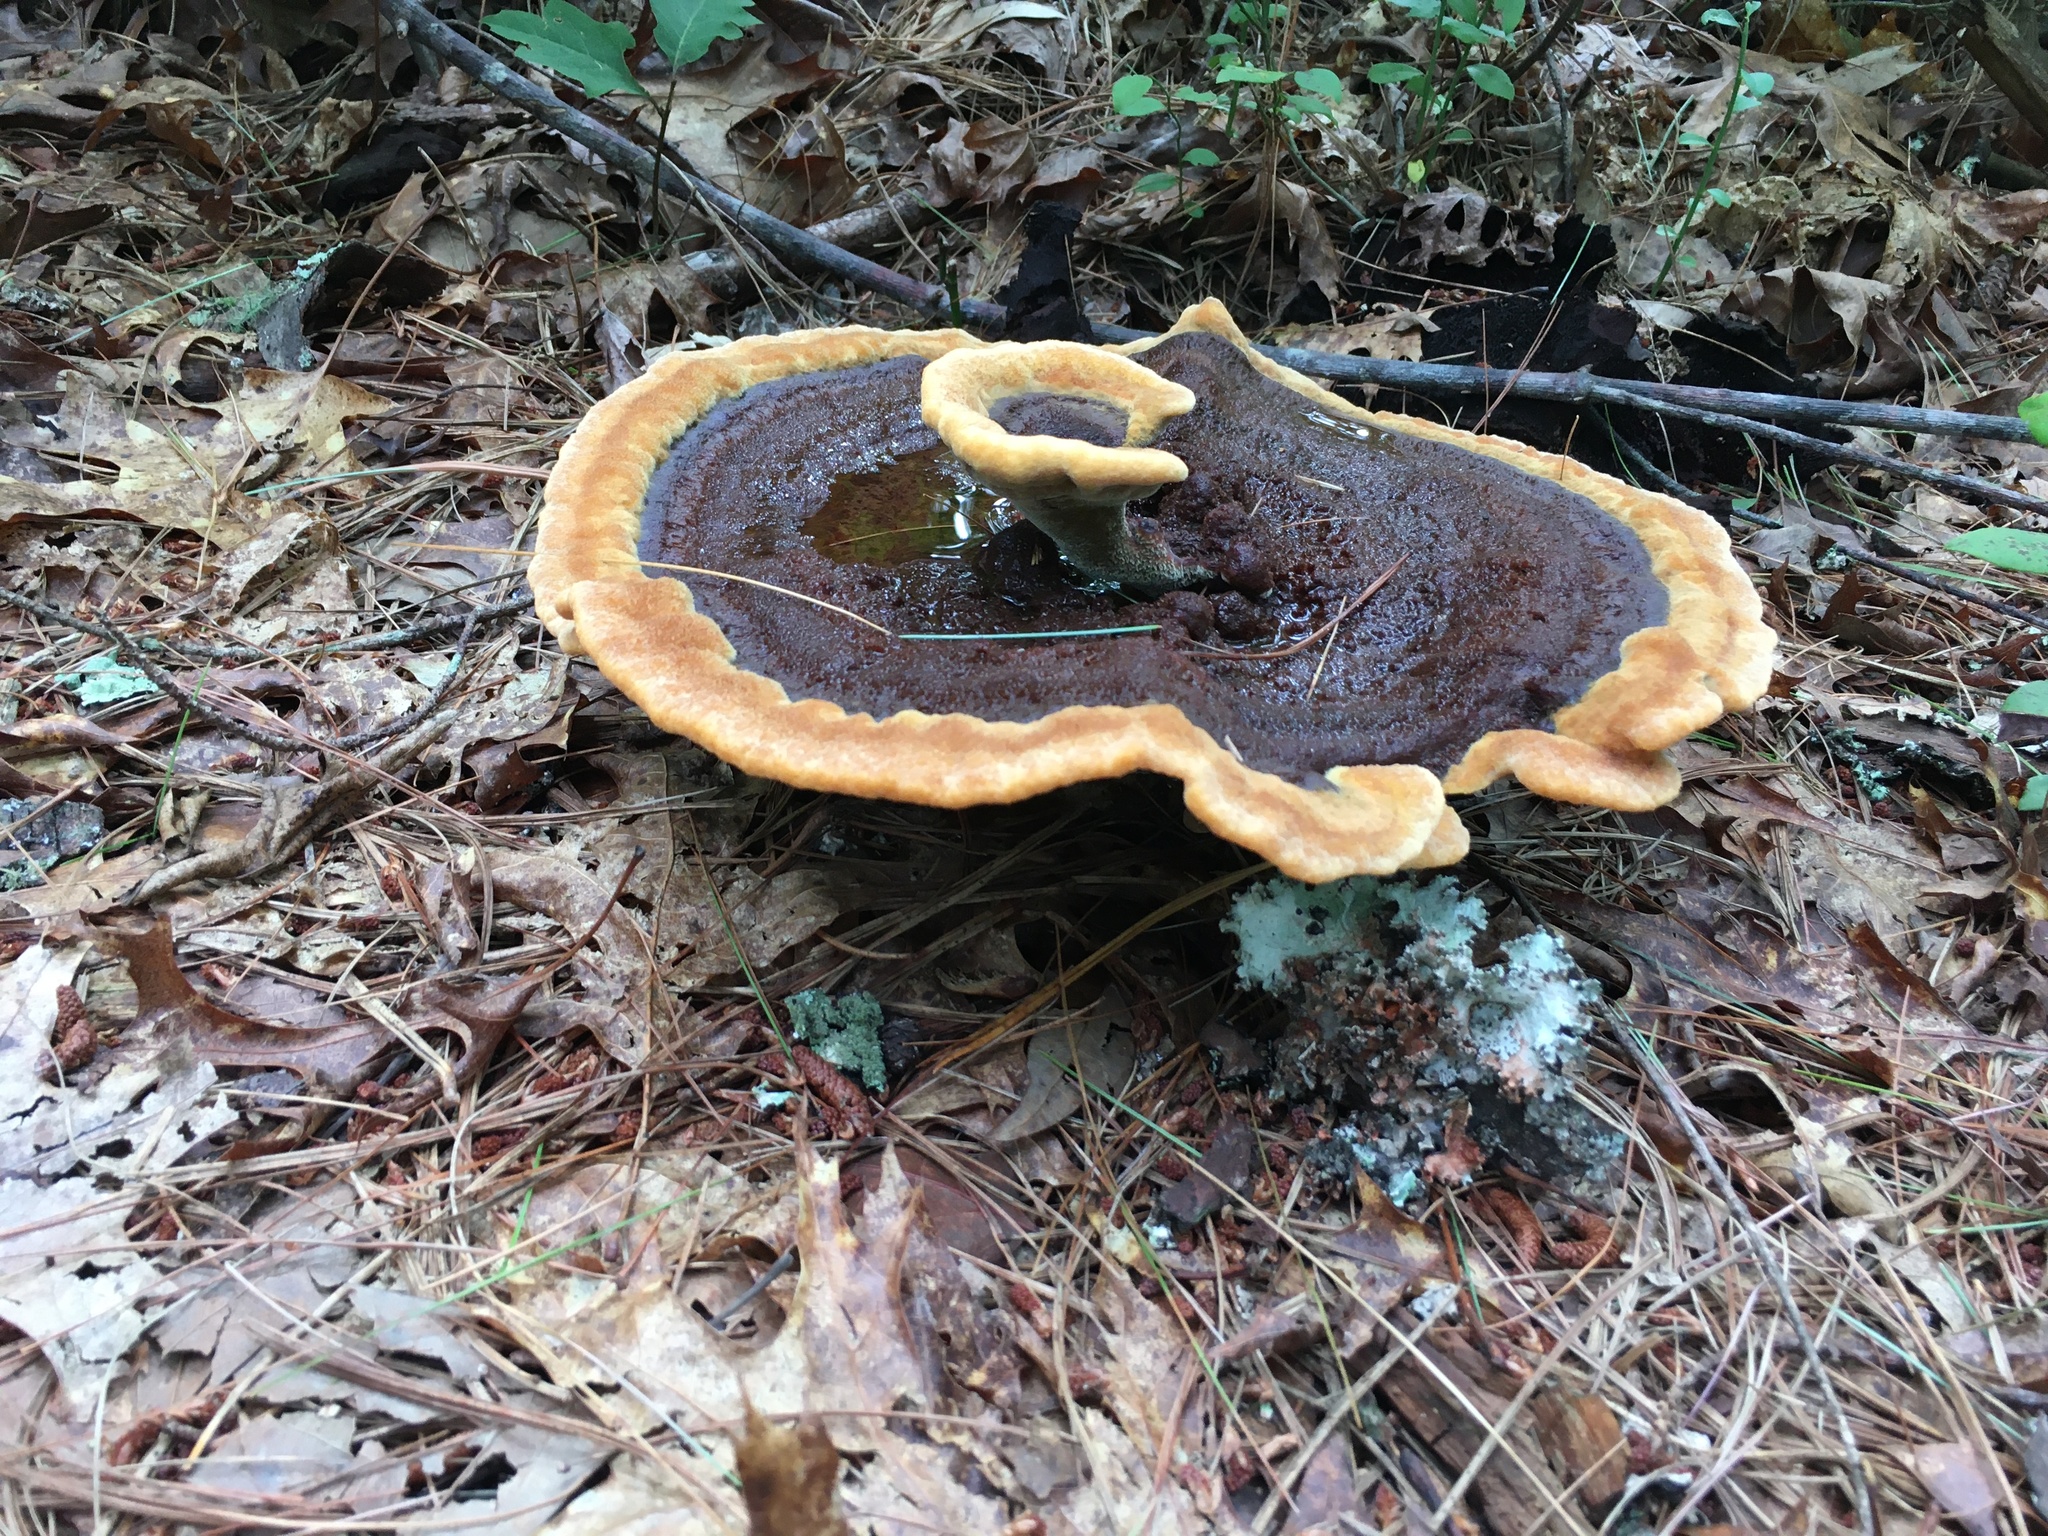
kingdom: Fungi
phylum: Basidiomycota
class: Agaricomycetes
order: Polyporales
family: Laetiporaceae
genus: Phaeolus
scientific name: Phaeolus schweinitzii
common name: Dyer's mazegill
